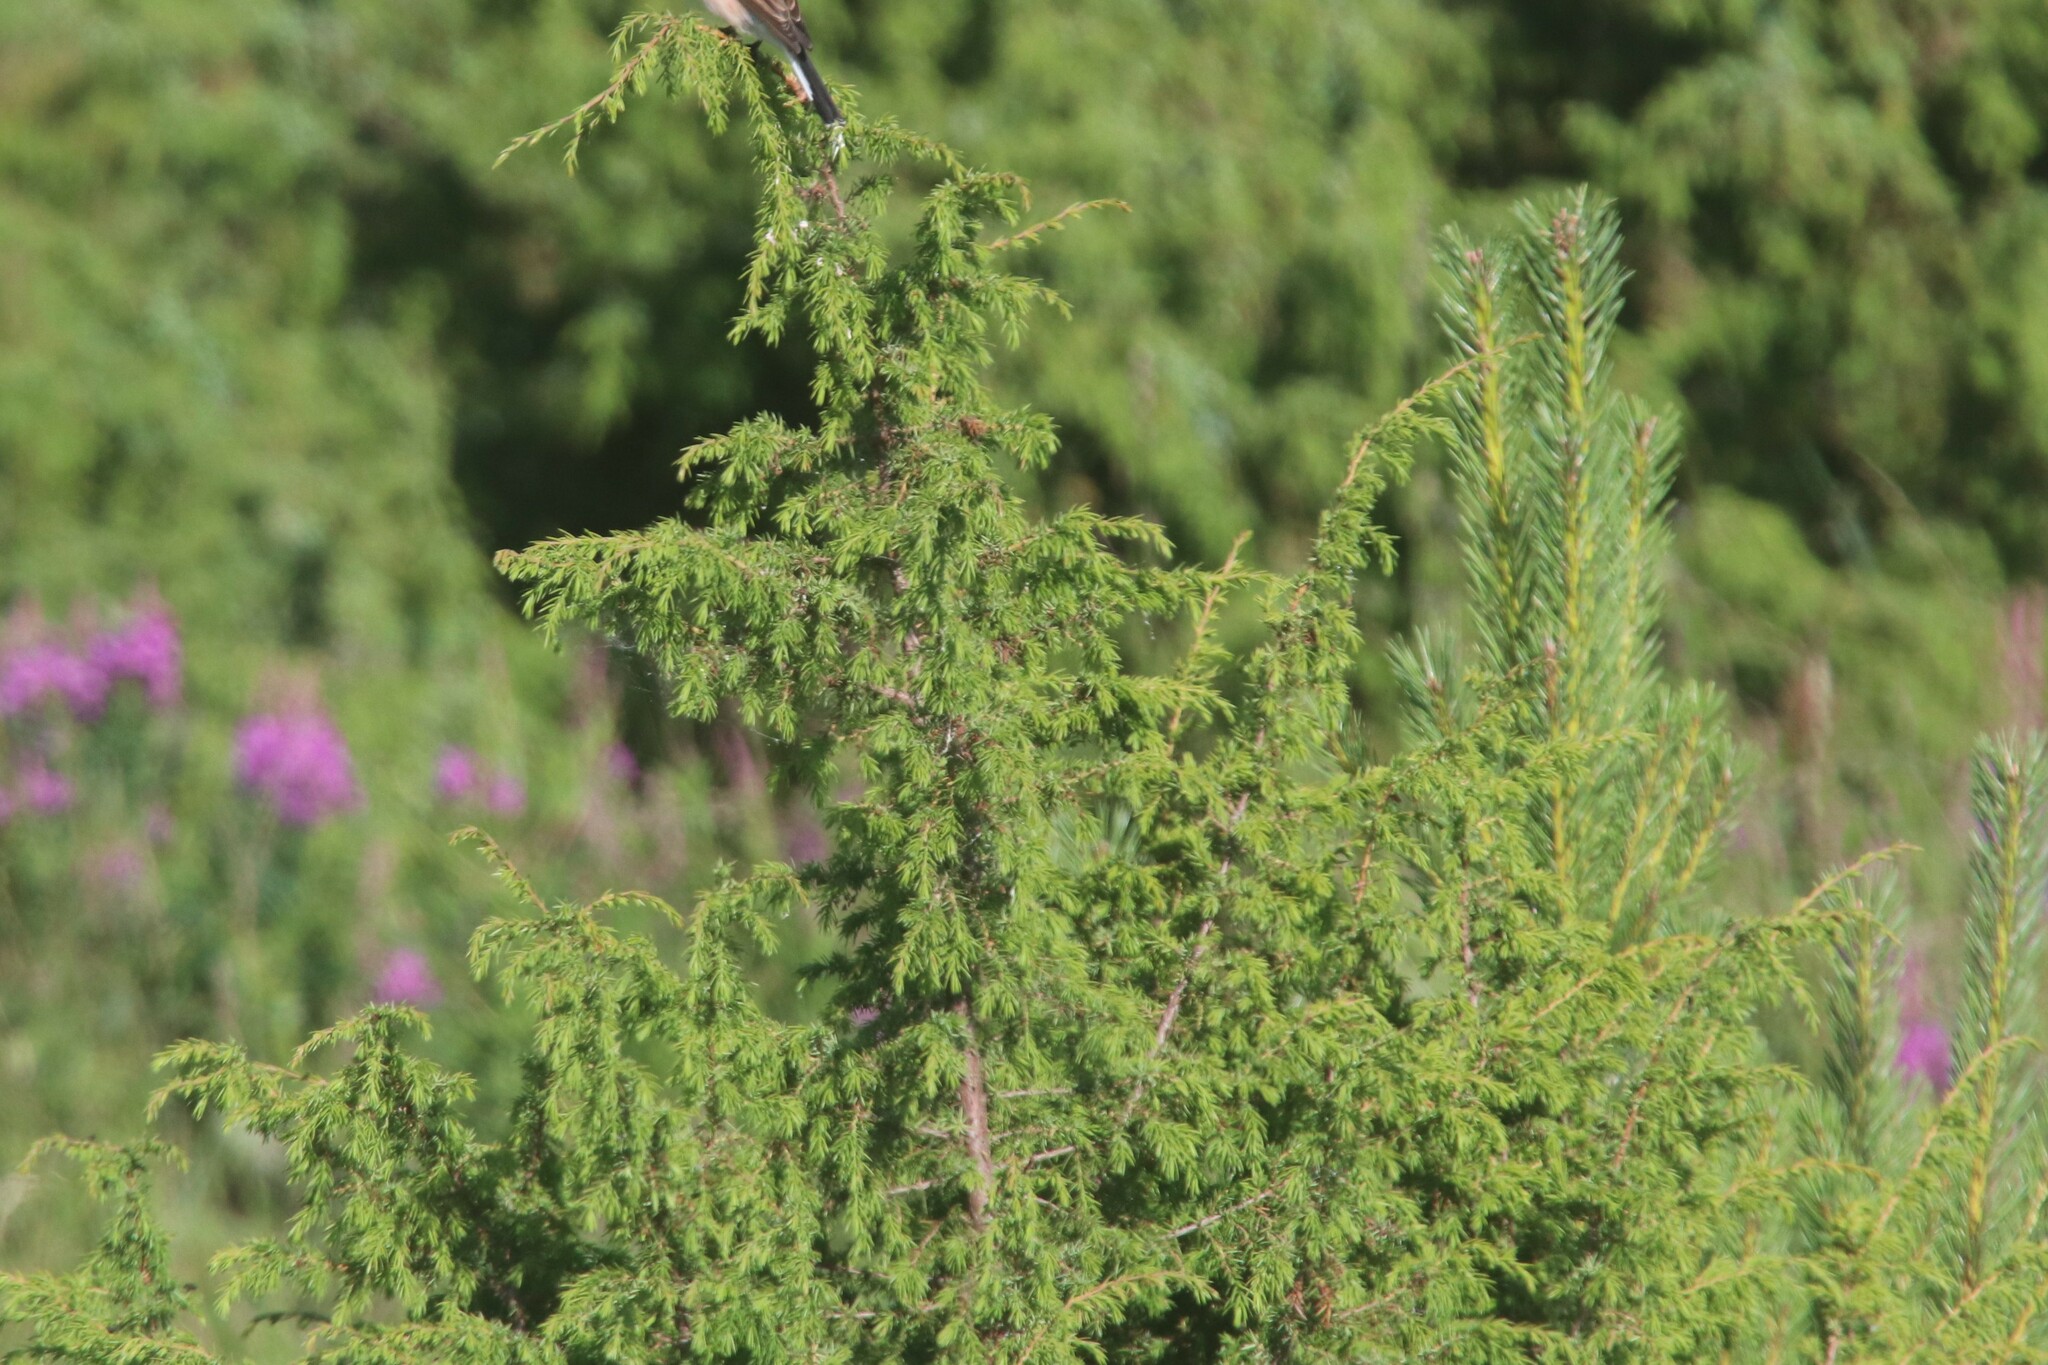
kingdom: Plantae
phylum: Tracheophyta
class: Pinopsida
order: Pinales
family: Cupressaceae
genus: Juniperus
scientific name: Juniperus communis
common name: Common juniper
